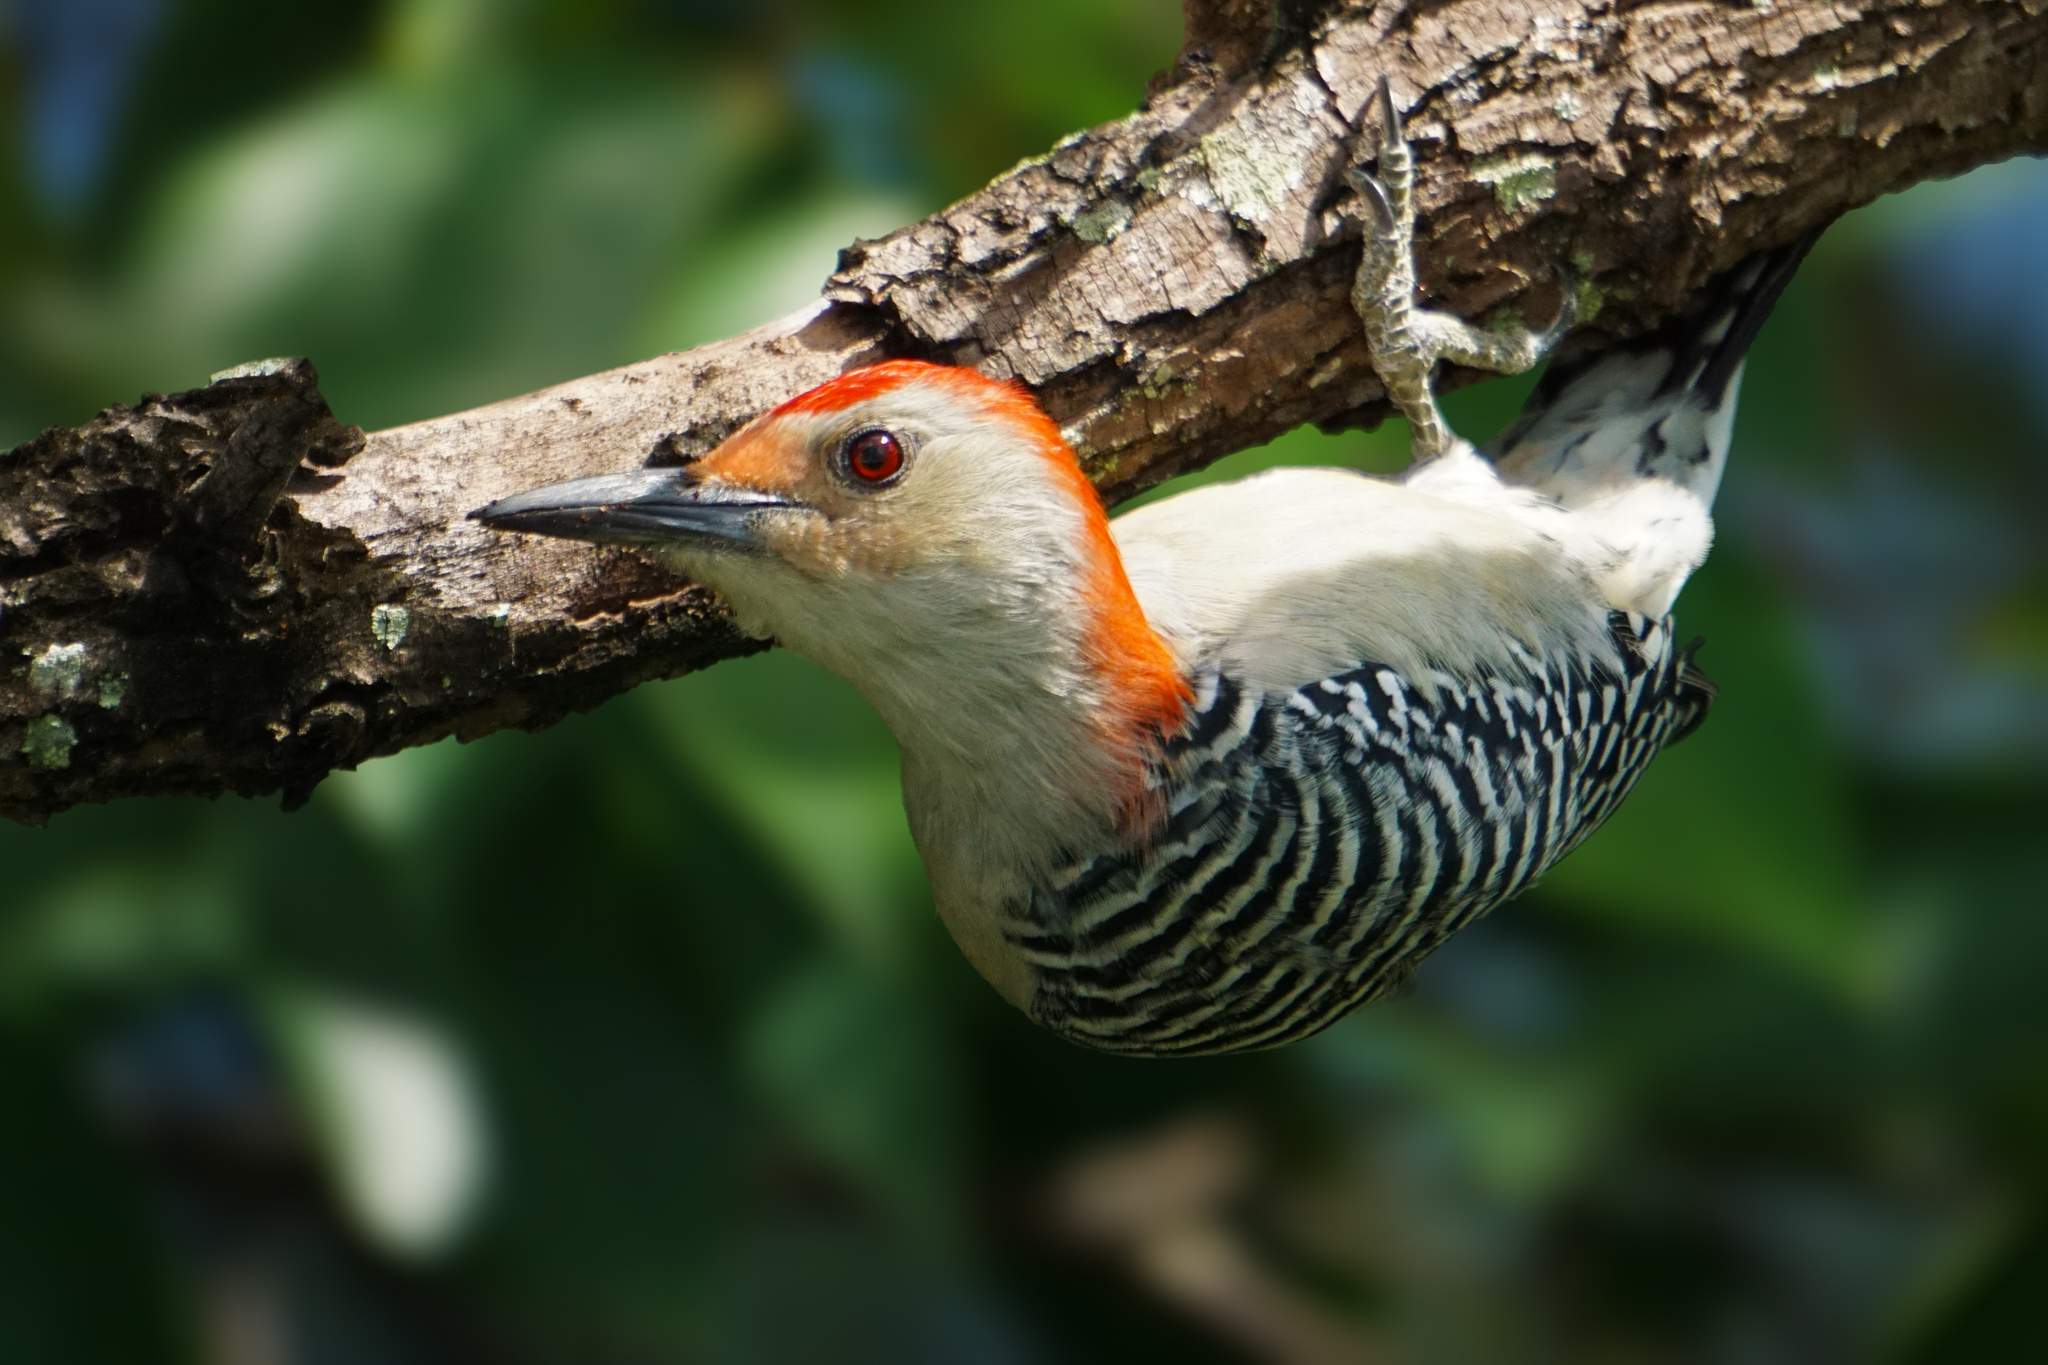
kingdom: Animalia
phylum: Chordata
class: Aves
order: Piciformes
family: Picidae
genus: Melanerpes
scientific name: Melanerpes carolinus
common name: Red-bellied woodpecker
